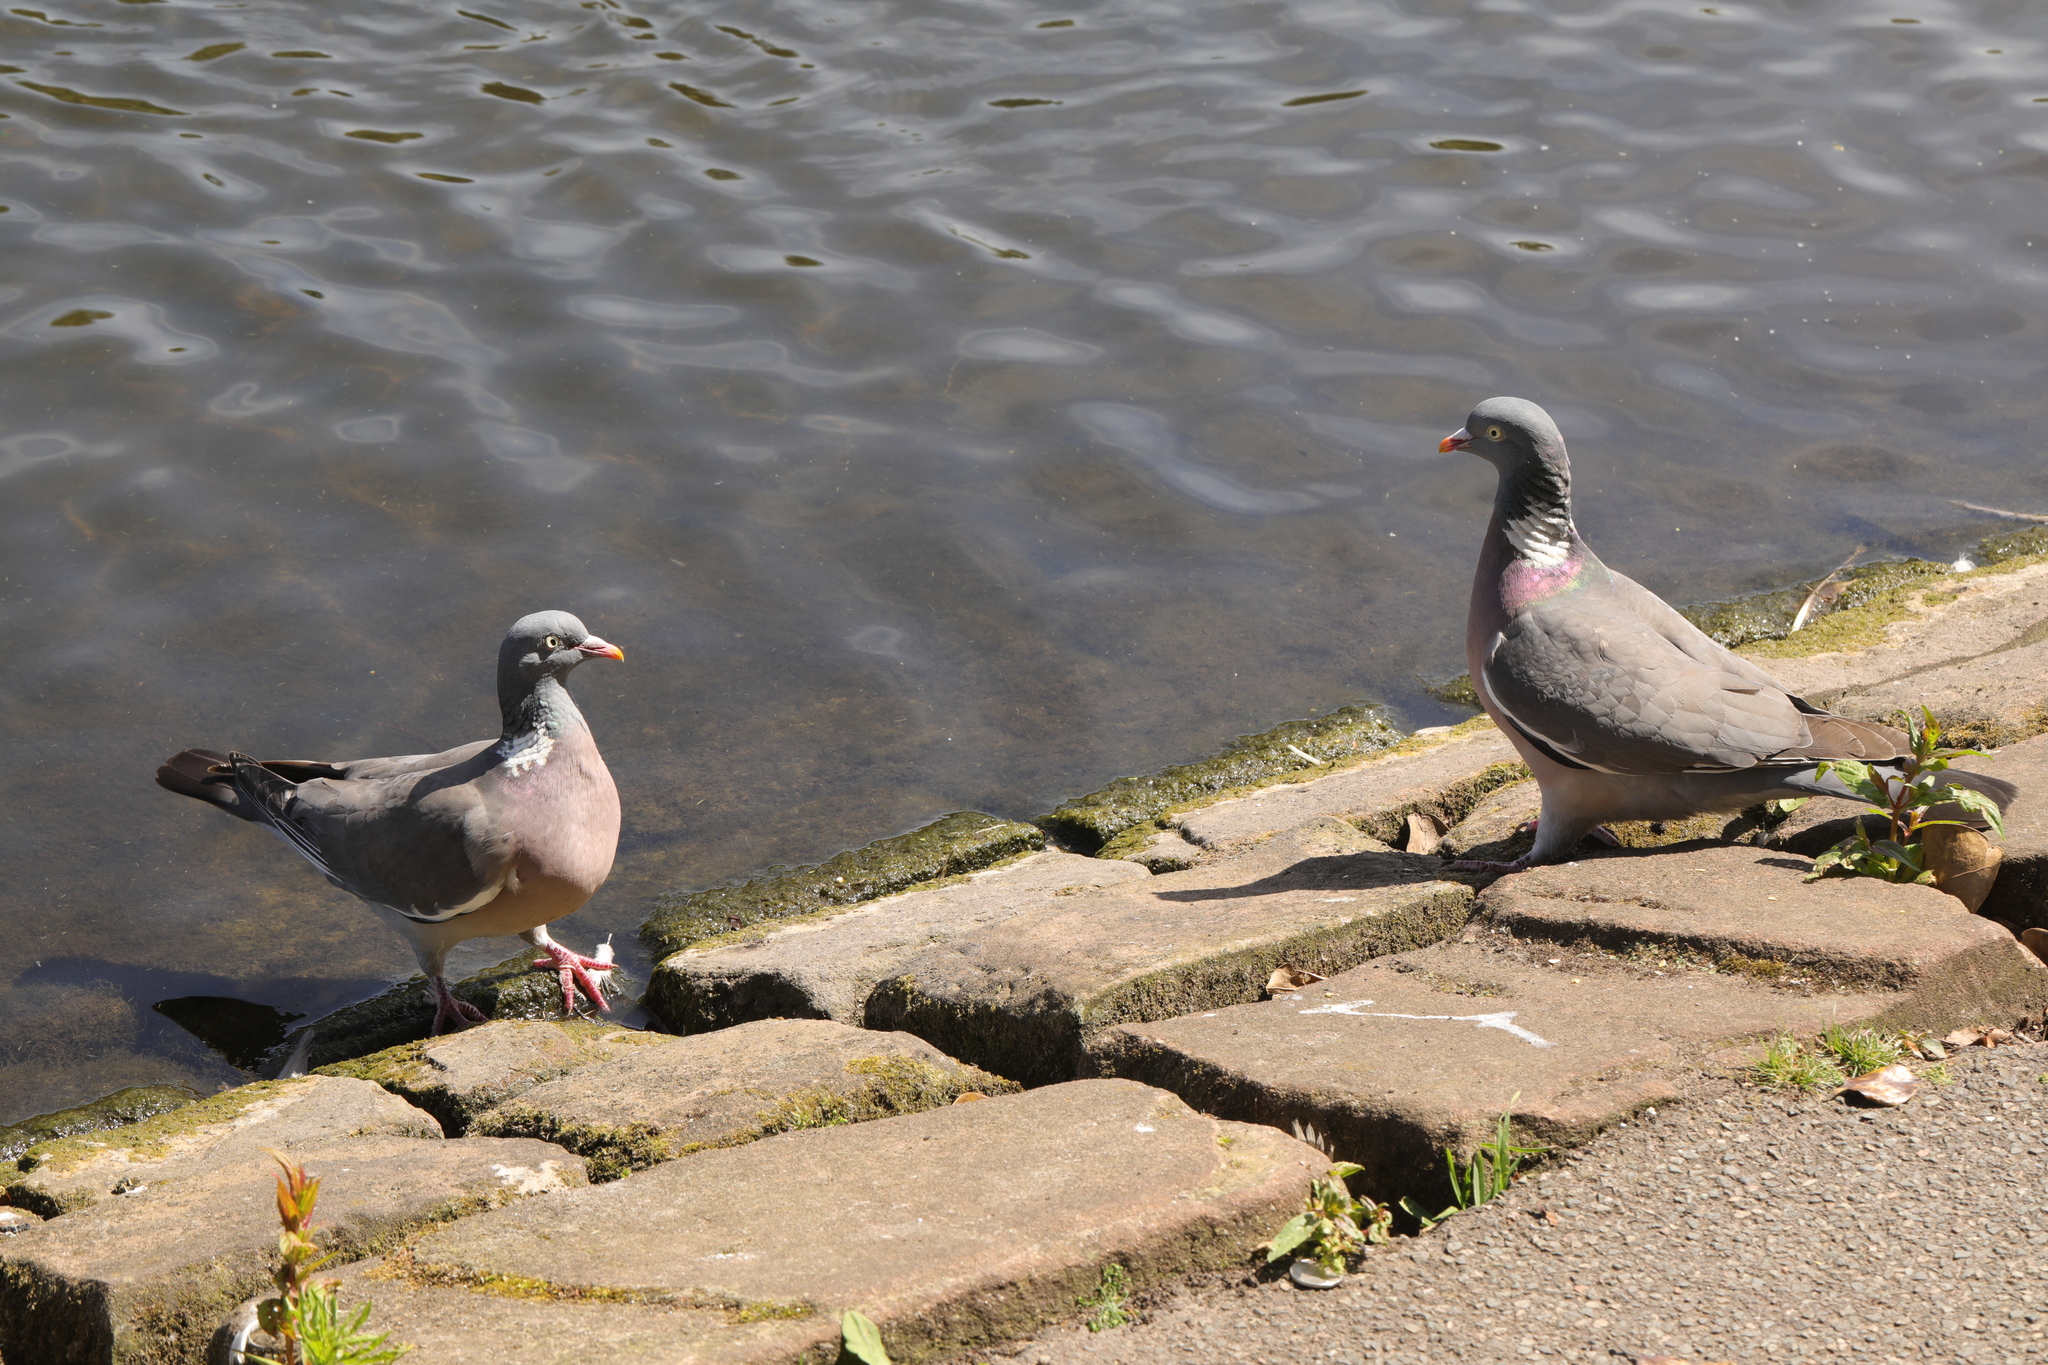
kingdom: Animalia
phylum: Chordata
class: Aves
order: Columbiformes
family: Columbidae
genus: Columba
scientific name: Columba palumbus
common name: Common wood pigeon
